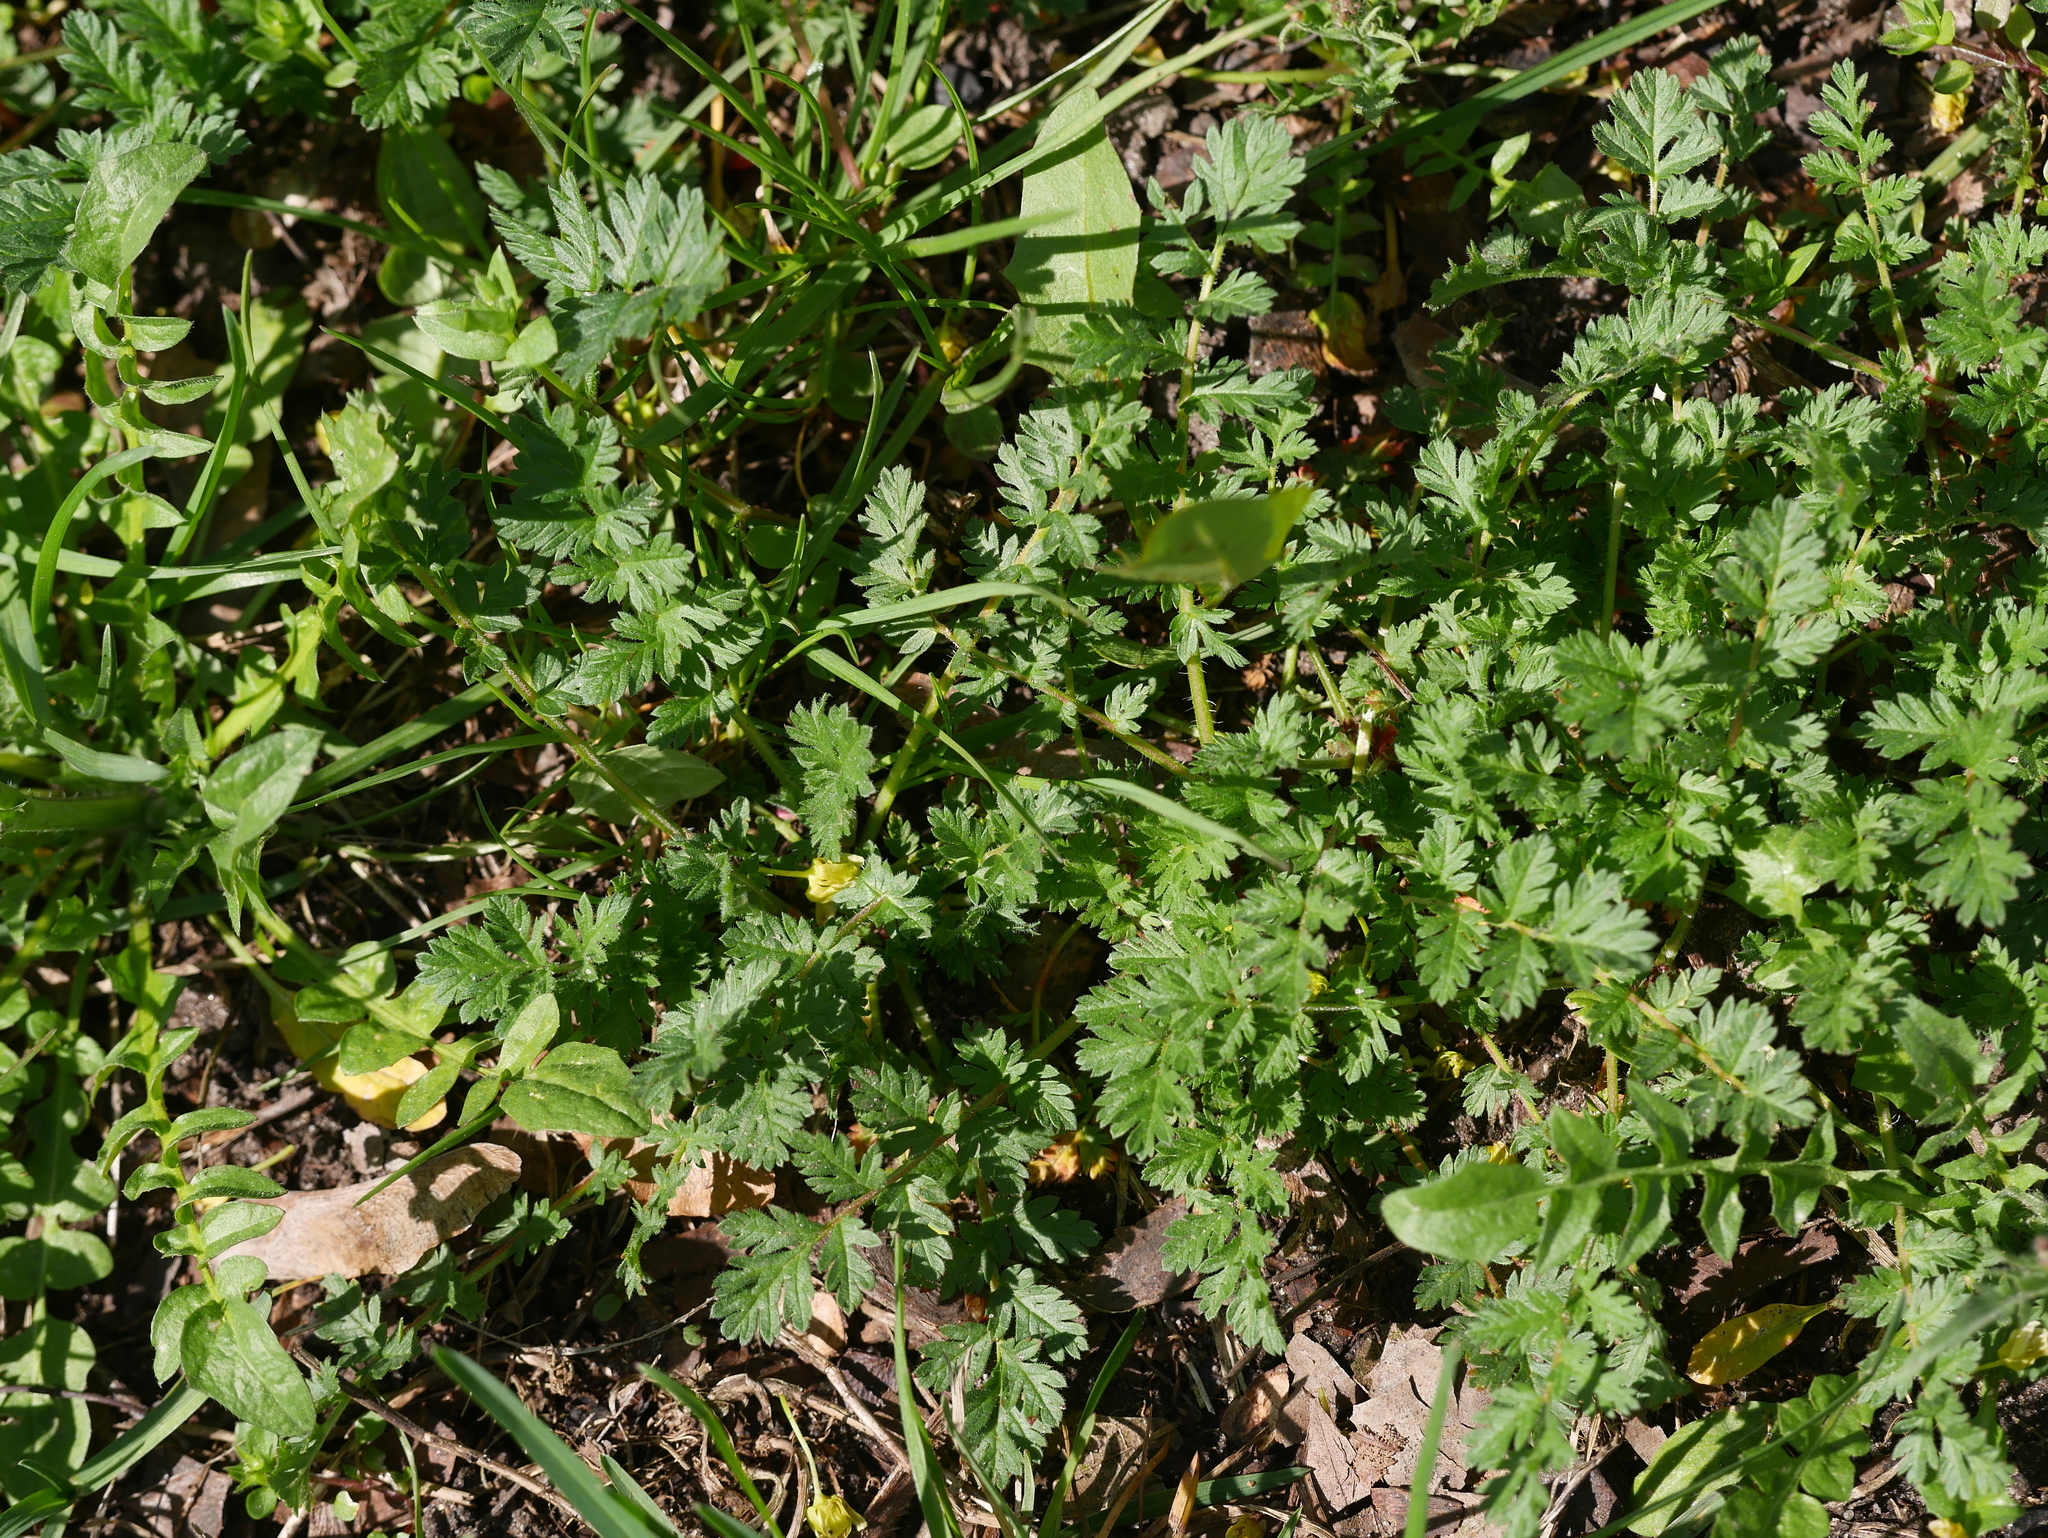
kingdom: Plantae
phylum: Tracheophyta
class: Magnoliopsida
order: Geraniales
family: Geraniaceae
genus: Erodium
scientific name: Erodium cicutarium
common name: Common stork's-bill
